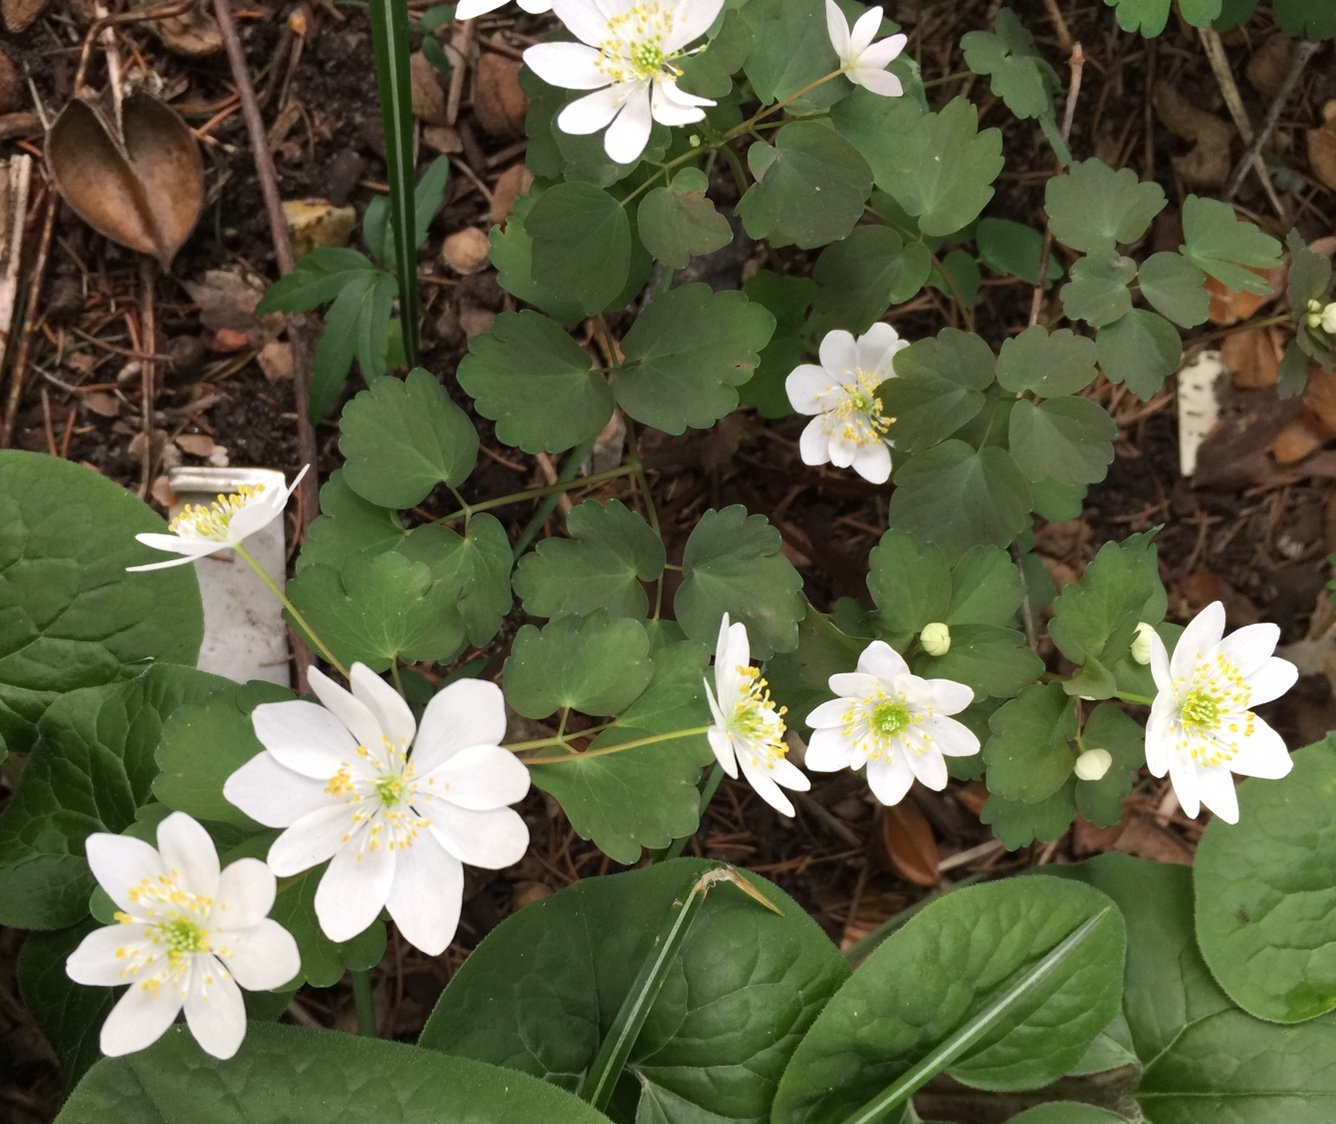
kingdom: Plantae
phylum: Tracheophyta
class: Magnoliopsida
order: Ranunculales
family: Ranunculaceae
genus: Thalictrum
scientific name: Thalictrum thalictroides
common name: Rue-anemone
